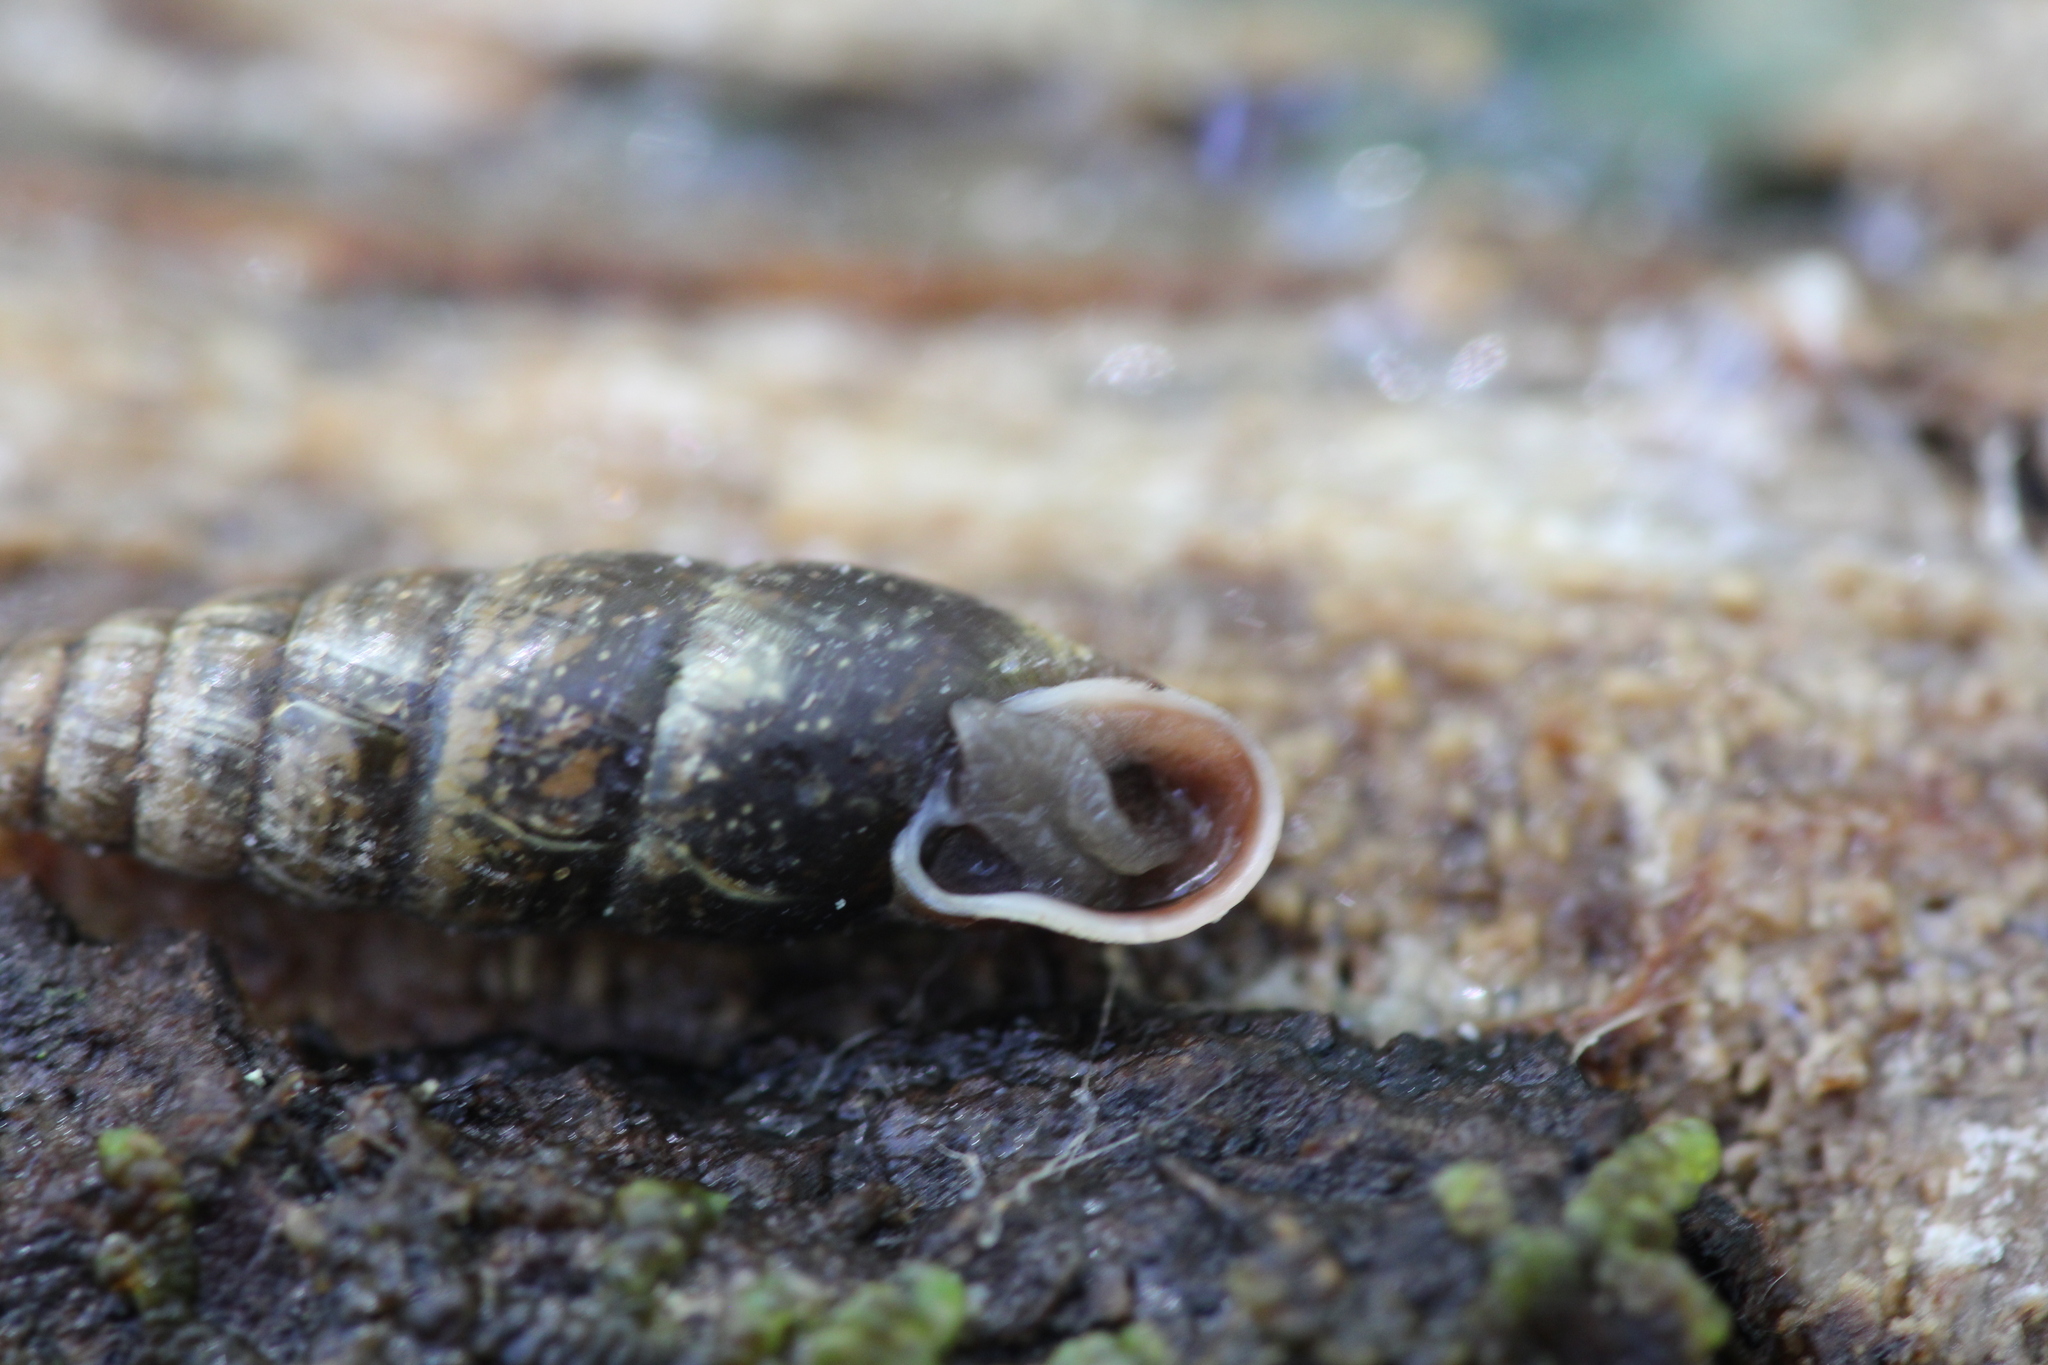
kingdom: Animalia
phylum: Mollusca
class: Gastropoda
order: Stylommatophora
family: Clausiliidae
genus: Cochlodina
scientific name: Cochlodina laminata
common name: Plaited door snail
